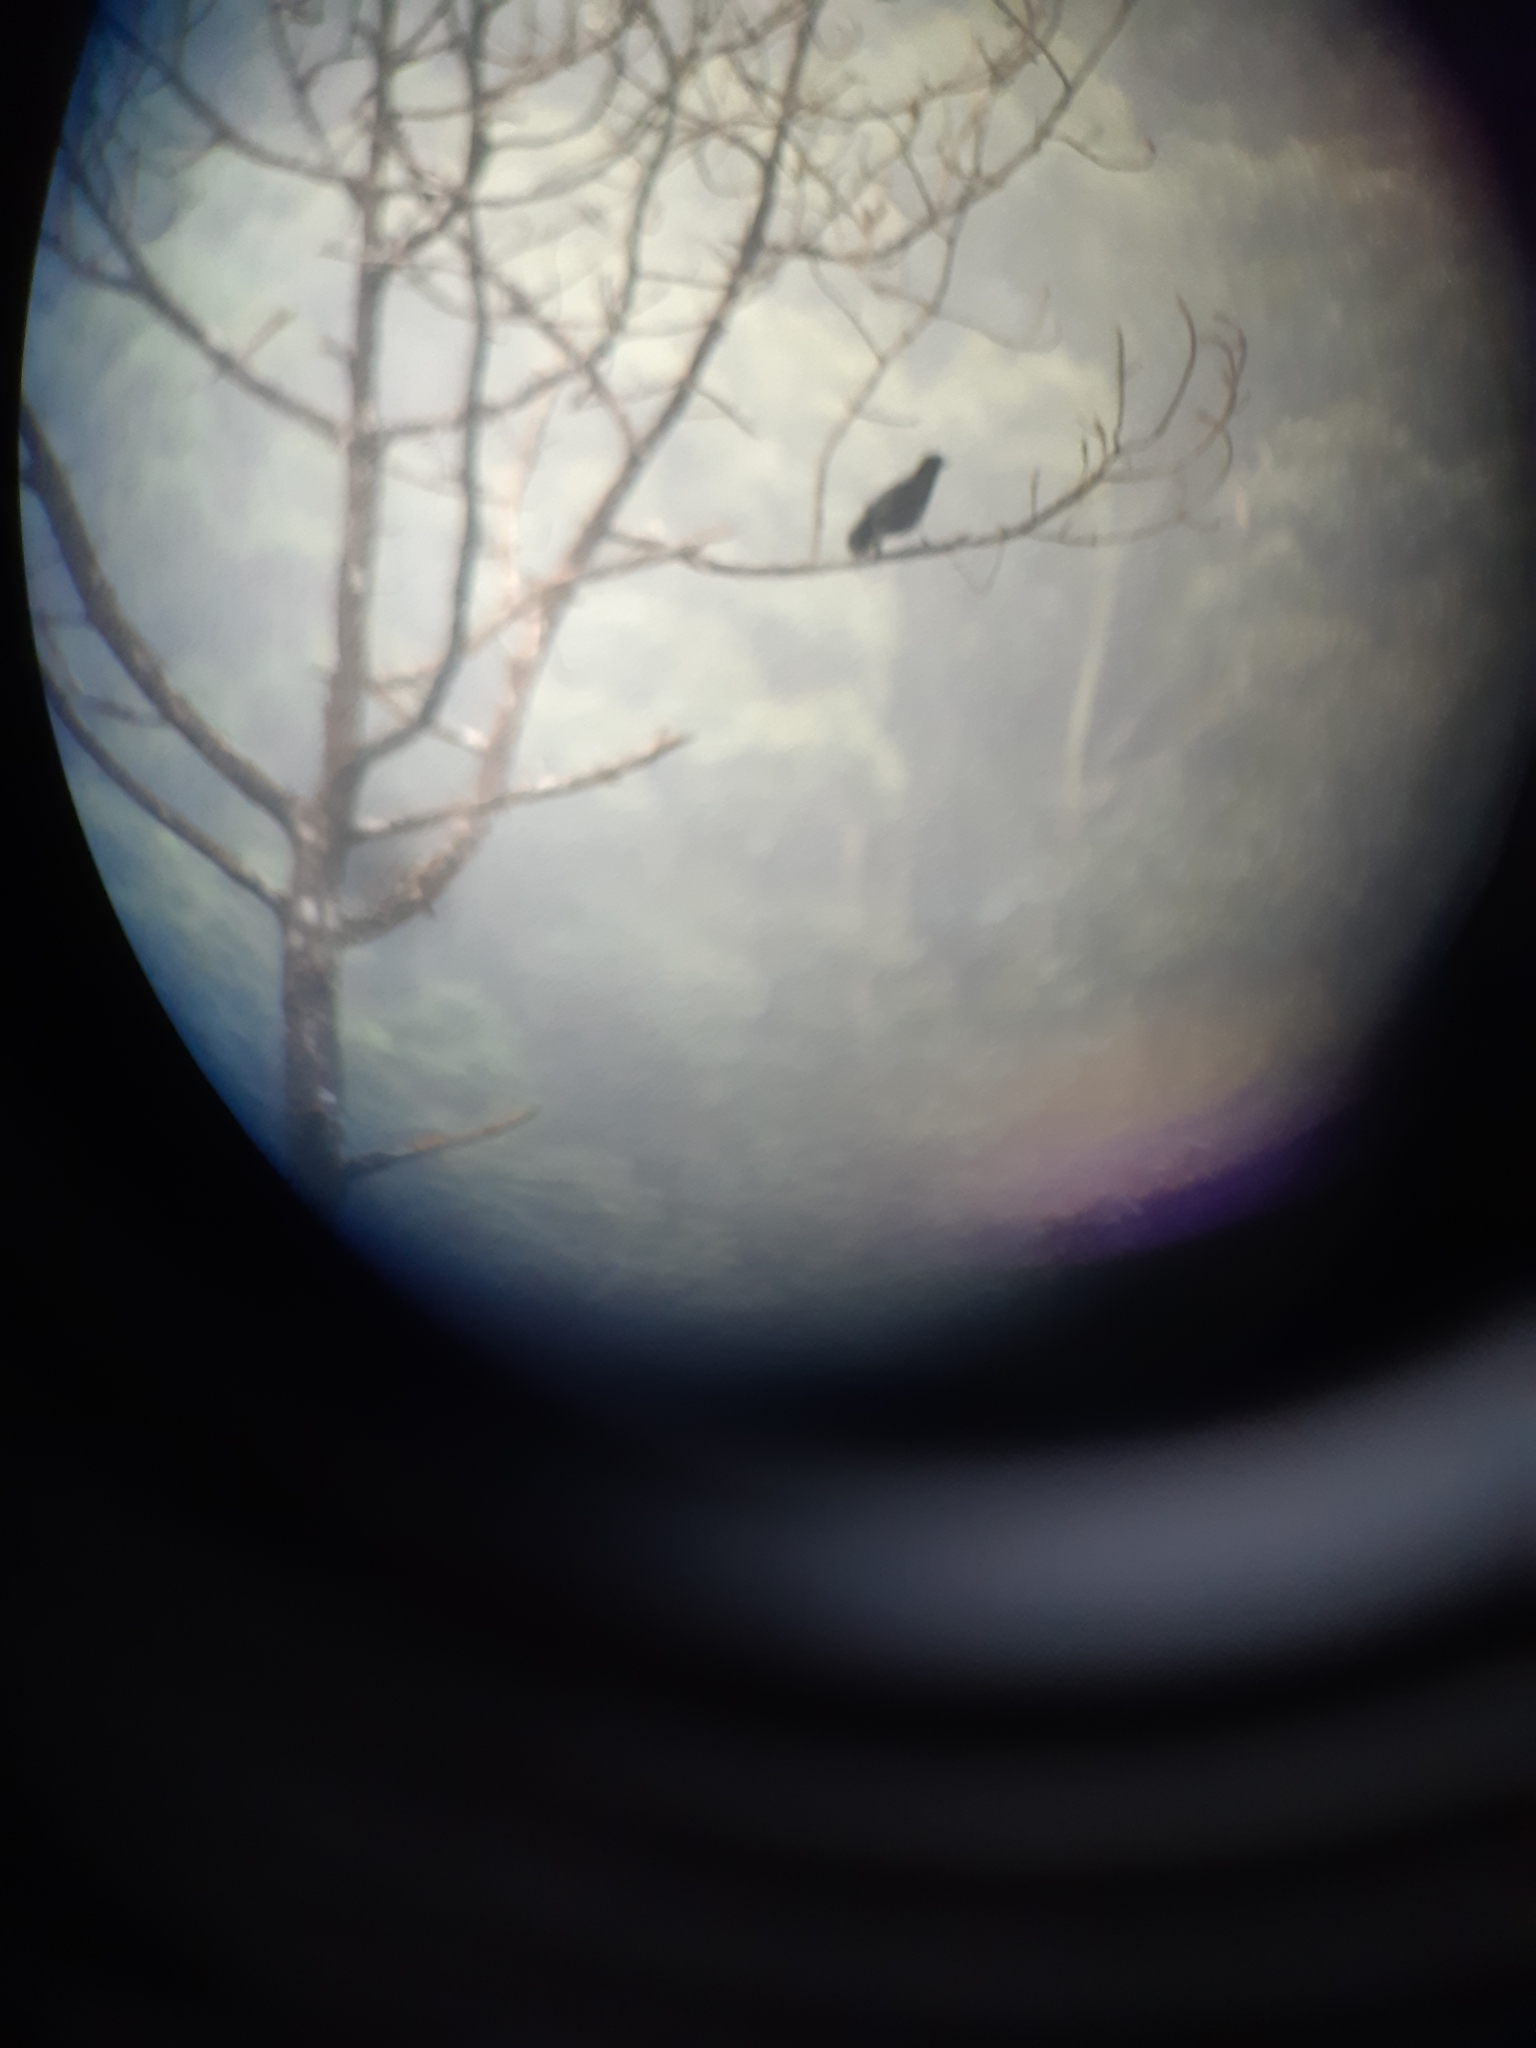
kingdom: Animalia
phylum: Chordata
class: Aves
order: Passeriformes
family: Corvidae
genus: Corvus
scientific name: Corvus macrorhynchos
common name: Large-billed crow
